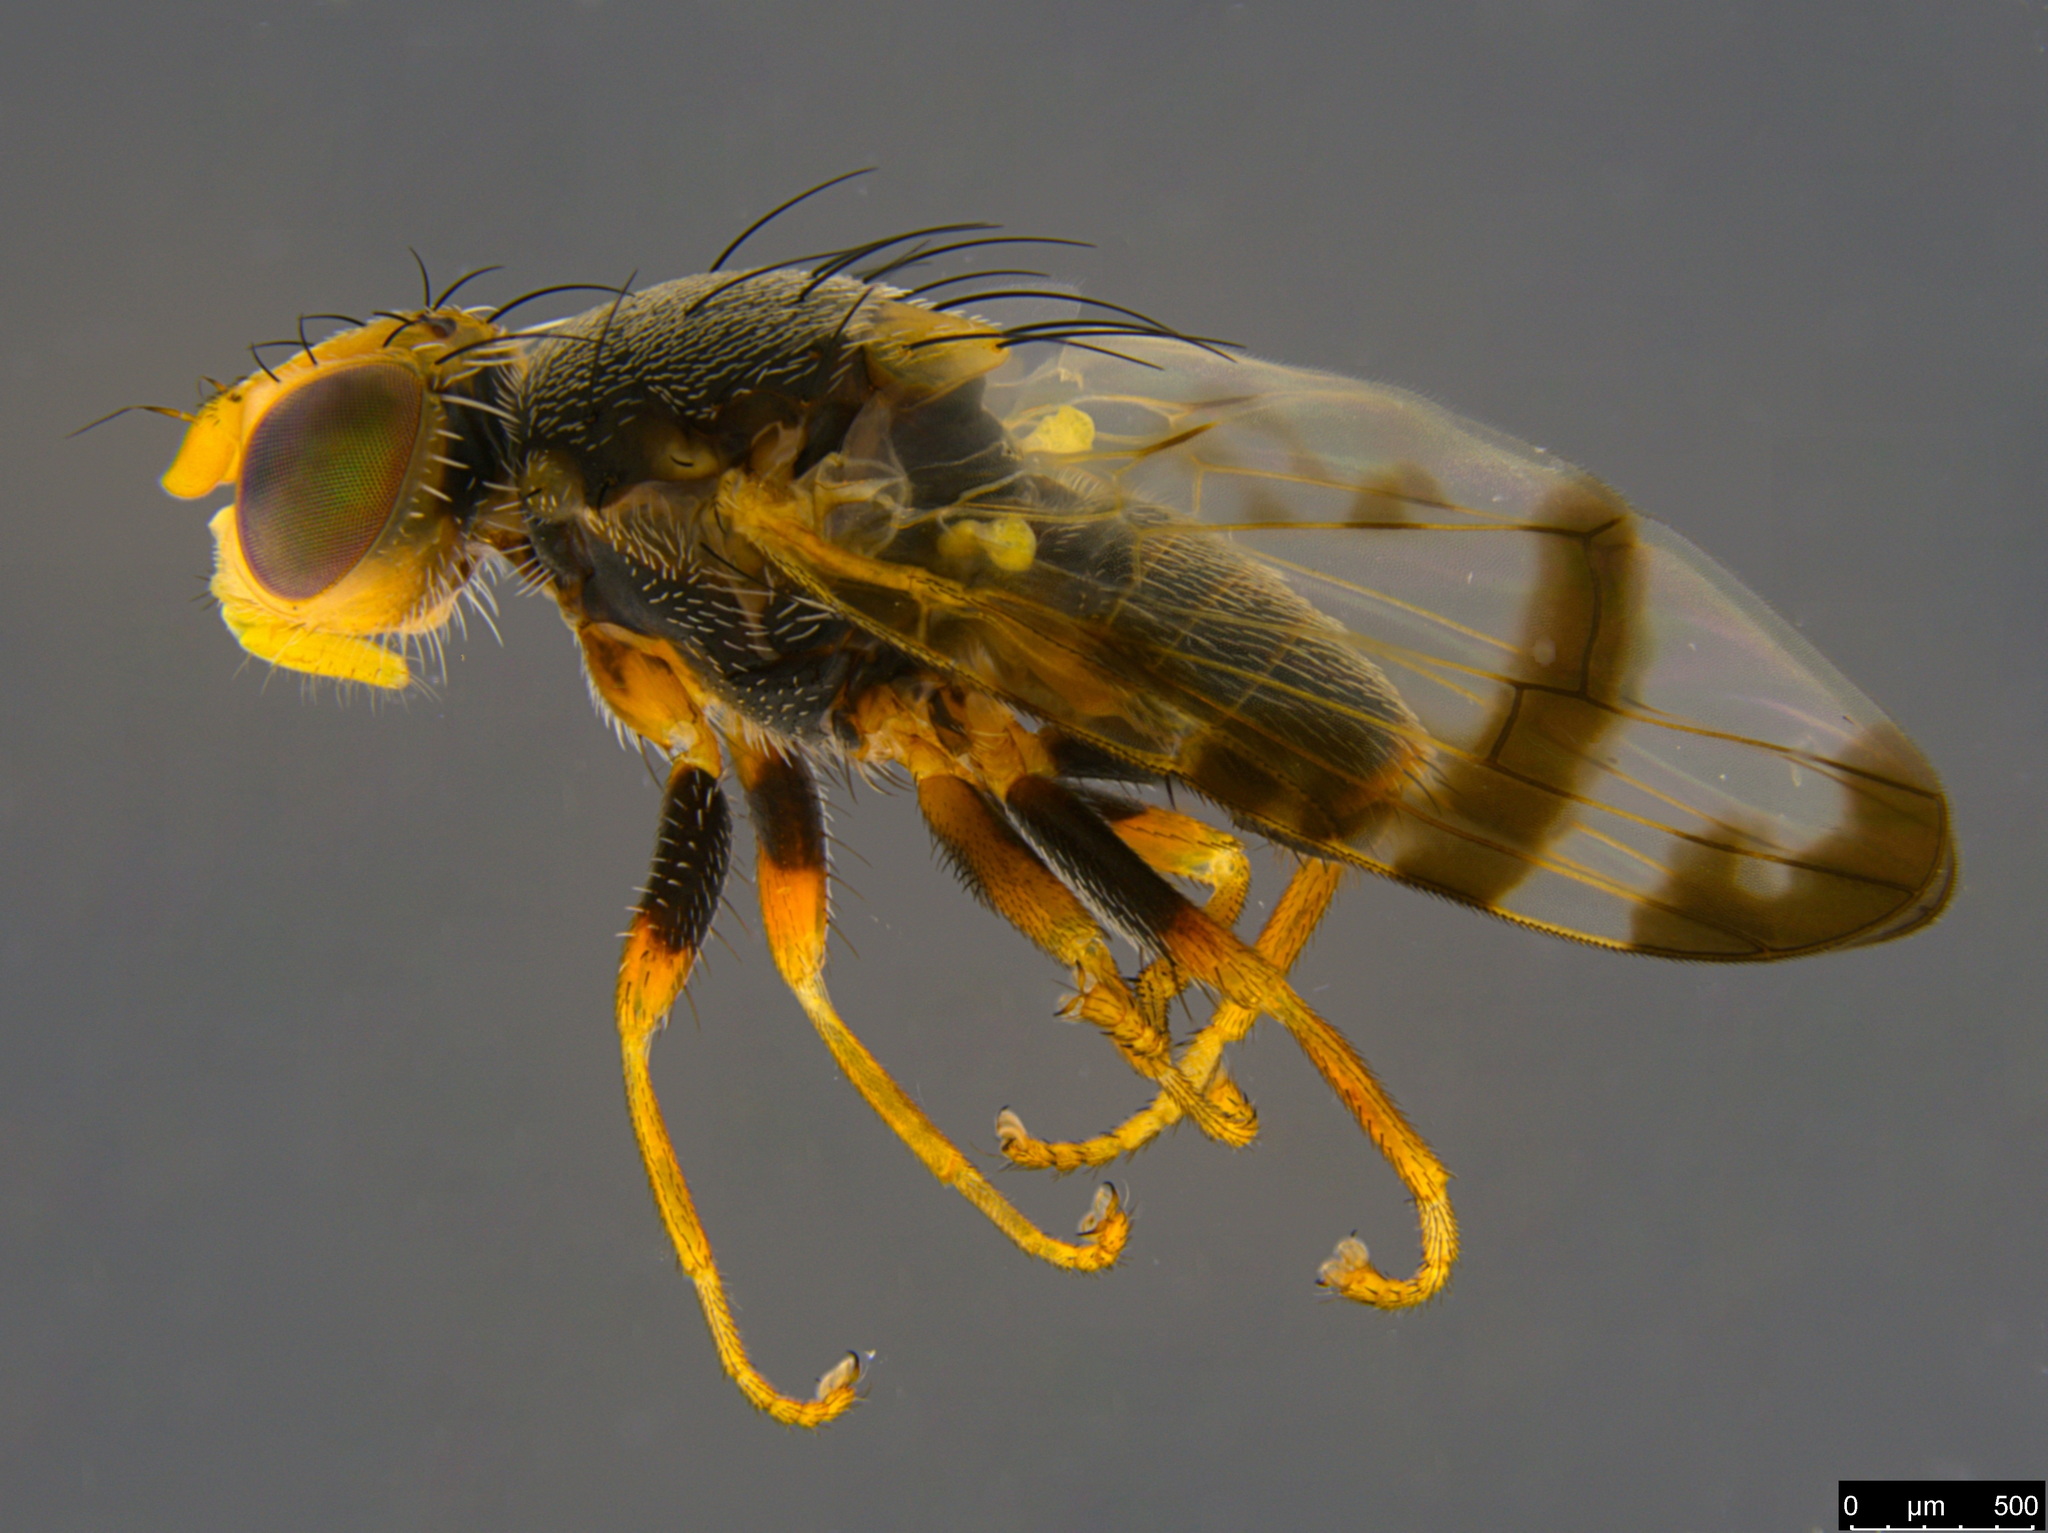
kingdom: Animalia
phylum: Arthropoda
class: Insecta
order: Diptera
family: Tephritidae
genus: Sphenella
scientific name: Sphenella ruficeps
